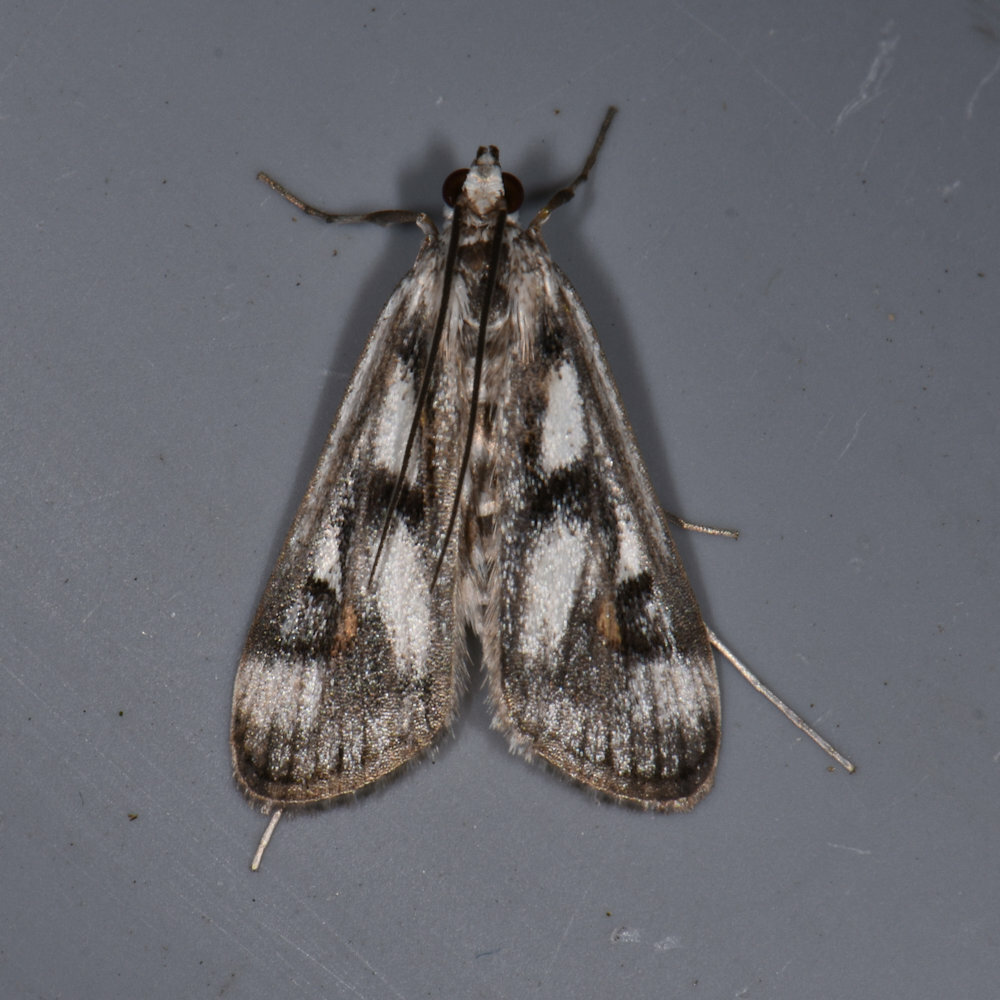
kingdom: Animalia
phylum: Arthropoda
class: Insecta
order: Lepidoptera
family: Crambidae
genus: Parapoynx
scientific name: Parapoynx maculalis
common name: Polymorphic pondweed moth
